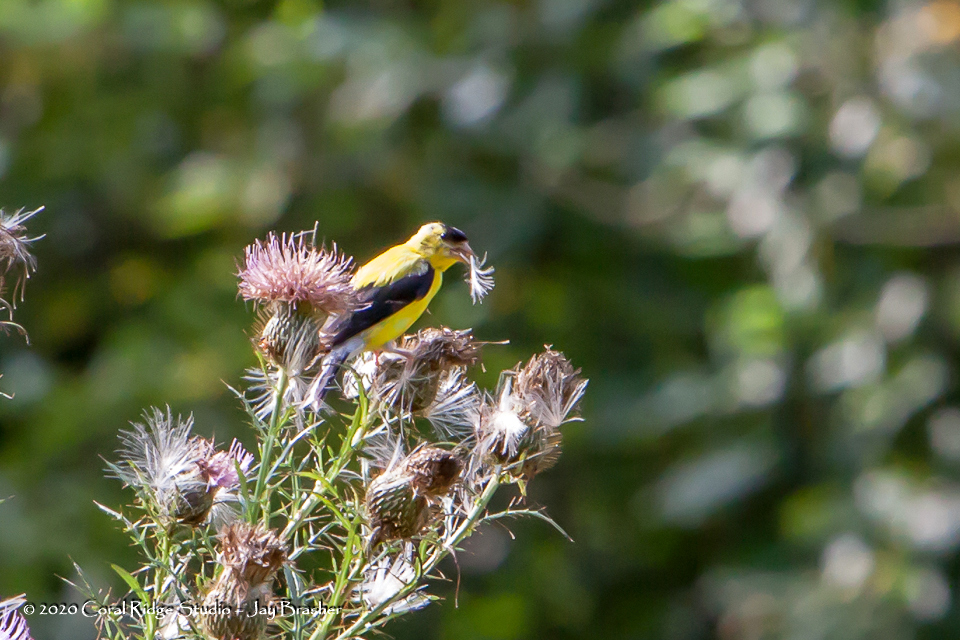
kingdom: Animalia
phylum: Chordata
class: Aves
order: Passeriformes
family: Fringillidae
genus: Spinus
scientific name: Spinus tristis
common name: American goldfinch
